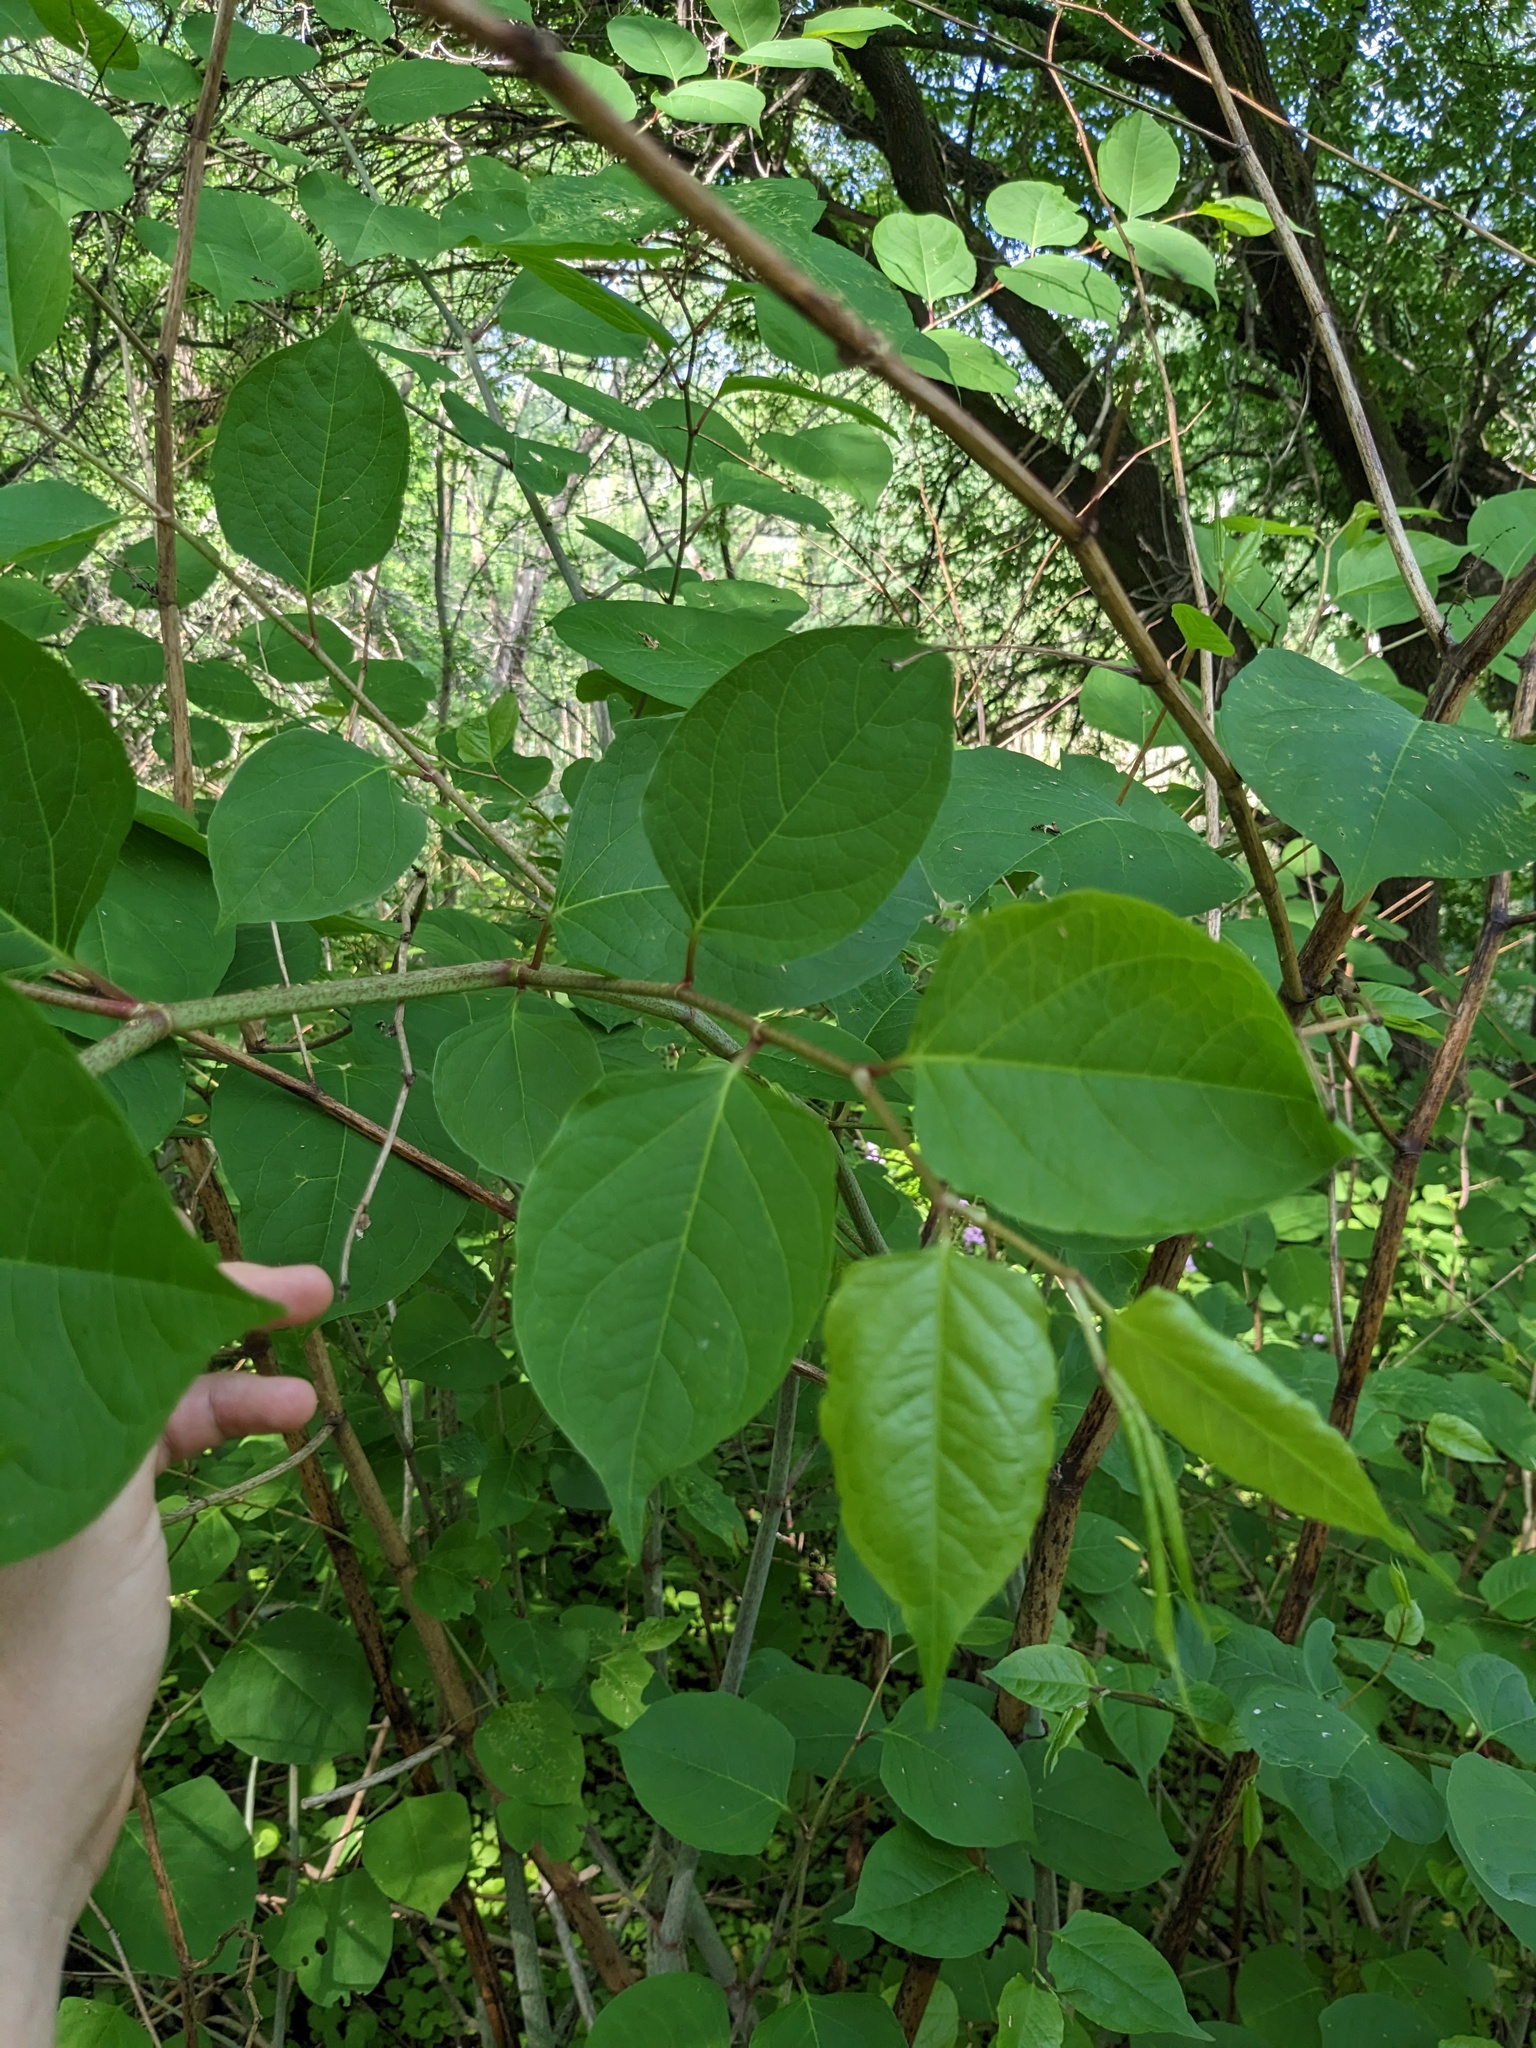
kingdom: Plantae
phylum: Tracheophyta
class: Magnoliopsida
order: Caryophyllales
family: Polygonaceae
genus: Reynoutria
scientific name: Reynoutria japonica
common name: Japanese knotweed
